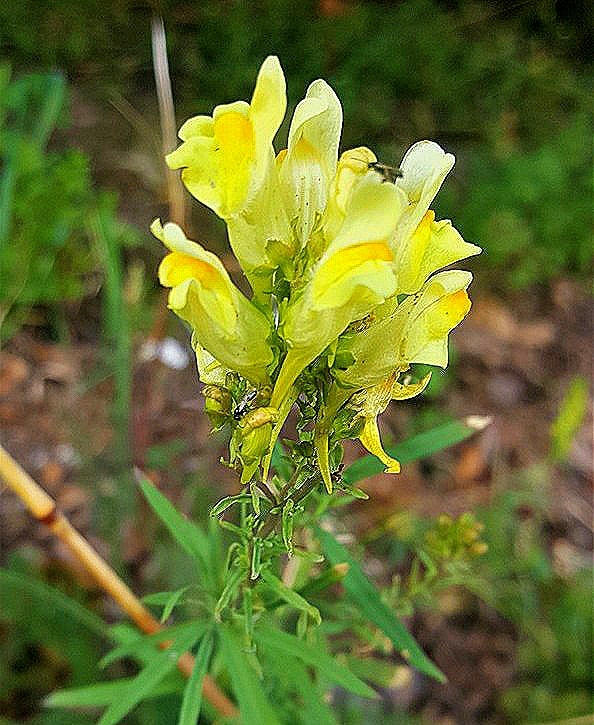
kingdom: Plantae
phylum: Tracheophyta
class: Magnoliopsida
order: Lamiales
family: Plantaginaceae
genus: Linaria
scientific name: Linaria vulgaris
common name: Butter and eggs
